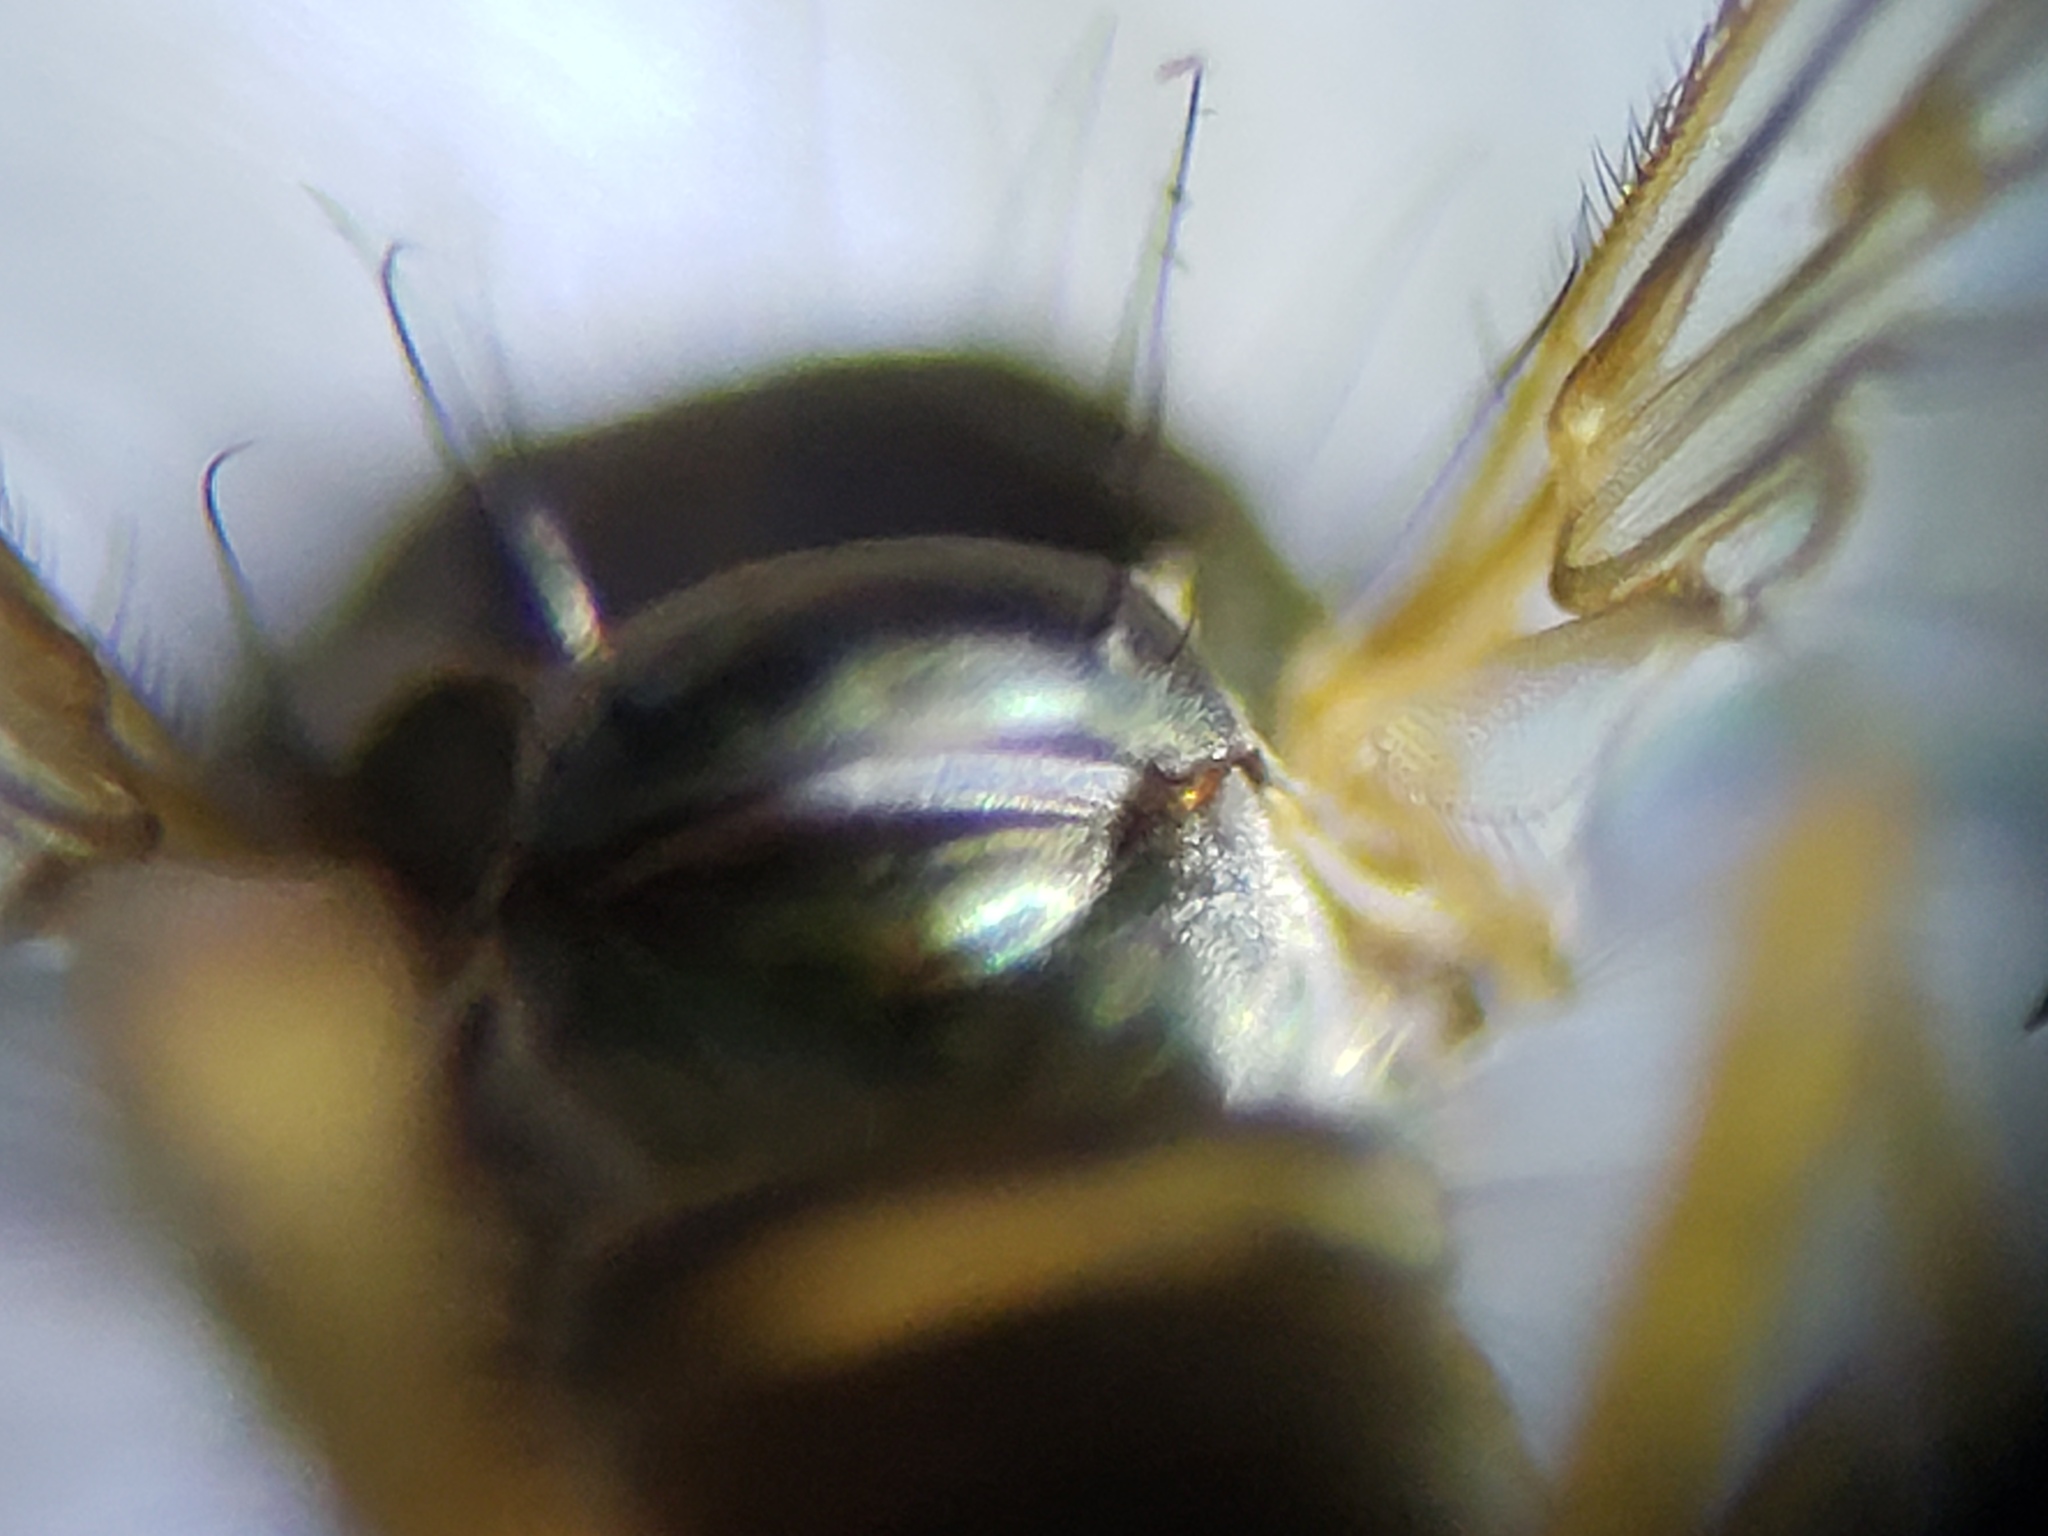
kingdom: Animalia
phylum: Arthropoda
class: Insecta
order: Diptera
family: Dolichopodidae
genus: Amblypsilopus
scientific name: Amblypsilopus psittacinus
